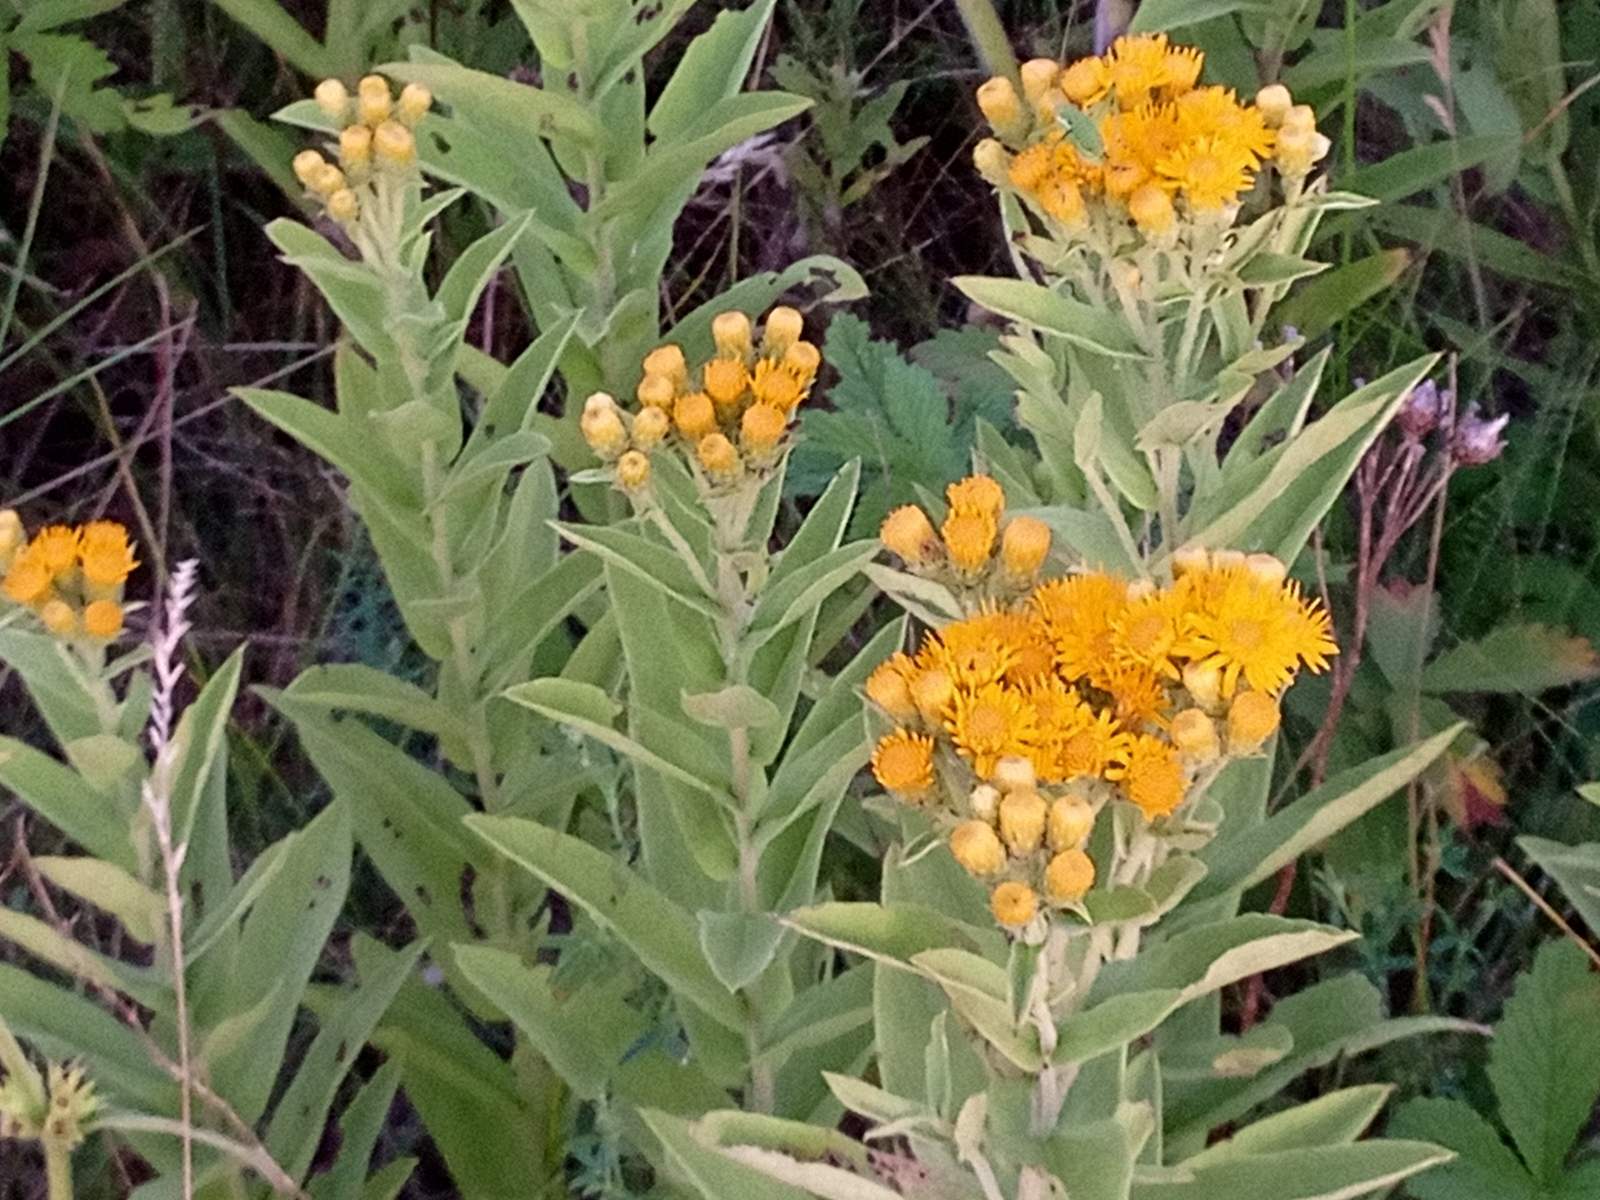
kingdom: Plantae
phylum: Tracheophyta
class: Magnoliopsida
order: Asterales
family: Asteraceae
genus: Pentanema
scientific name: Pentanema germanicum
